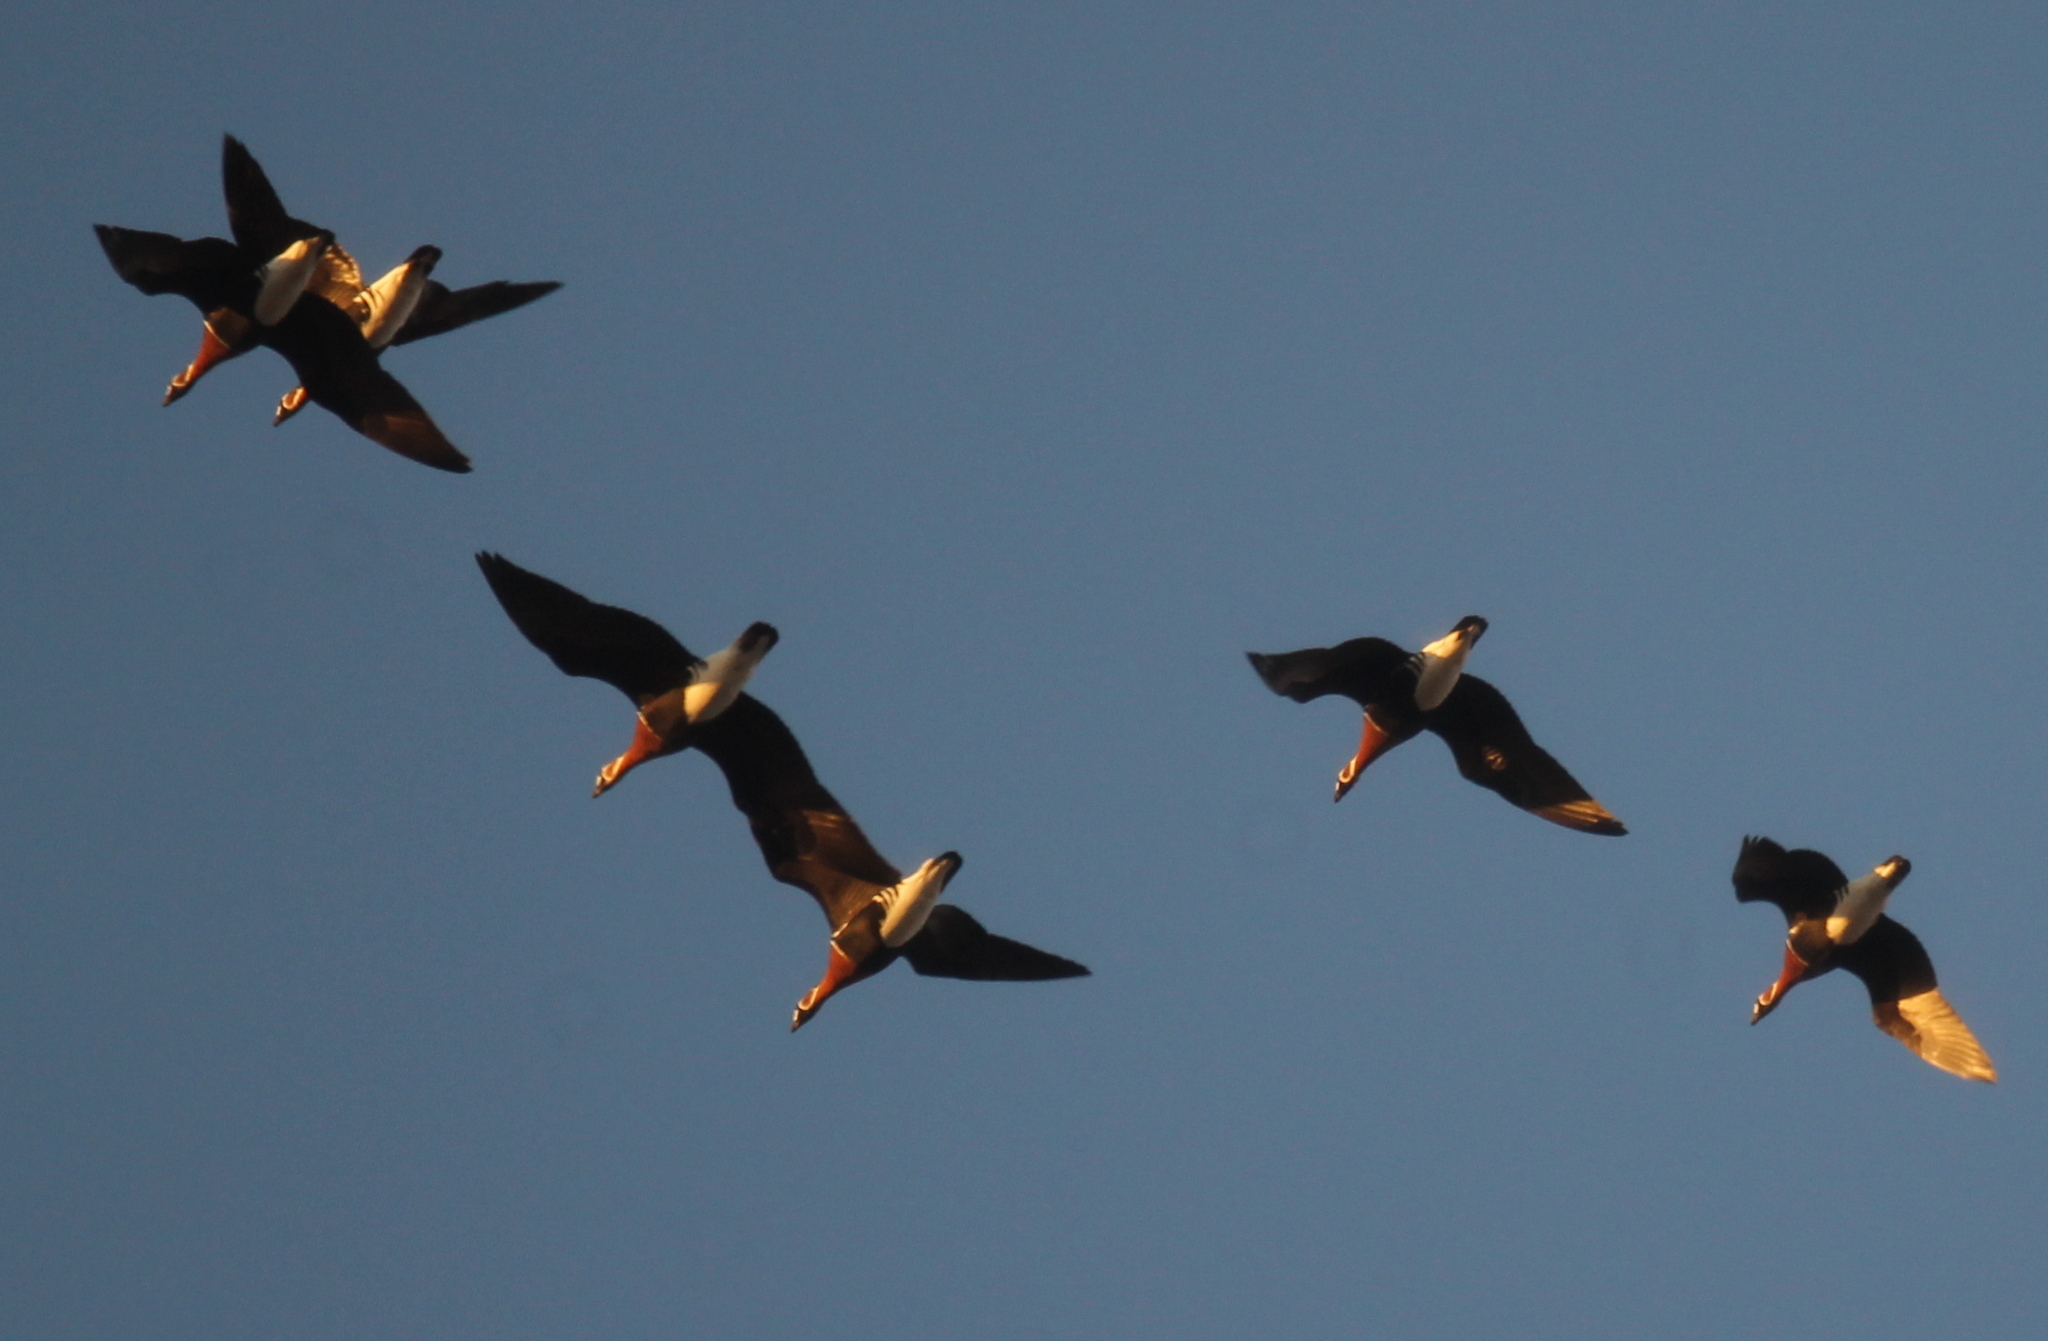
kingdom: Animalia
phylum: Chordata
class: Aves
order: Anseriformes
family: Anatidae
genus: Branta
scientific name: Branta ruficollis
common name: Red-breasted goose
